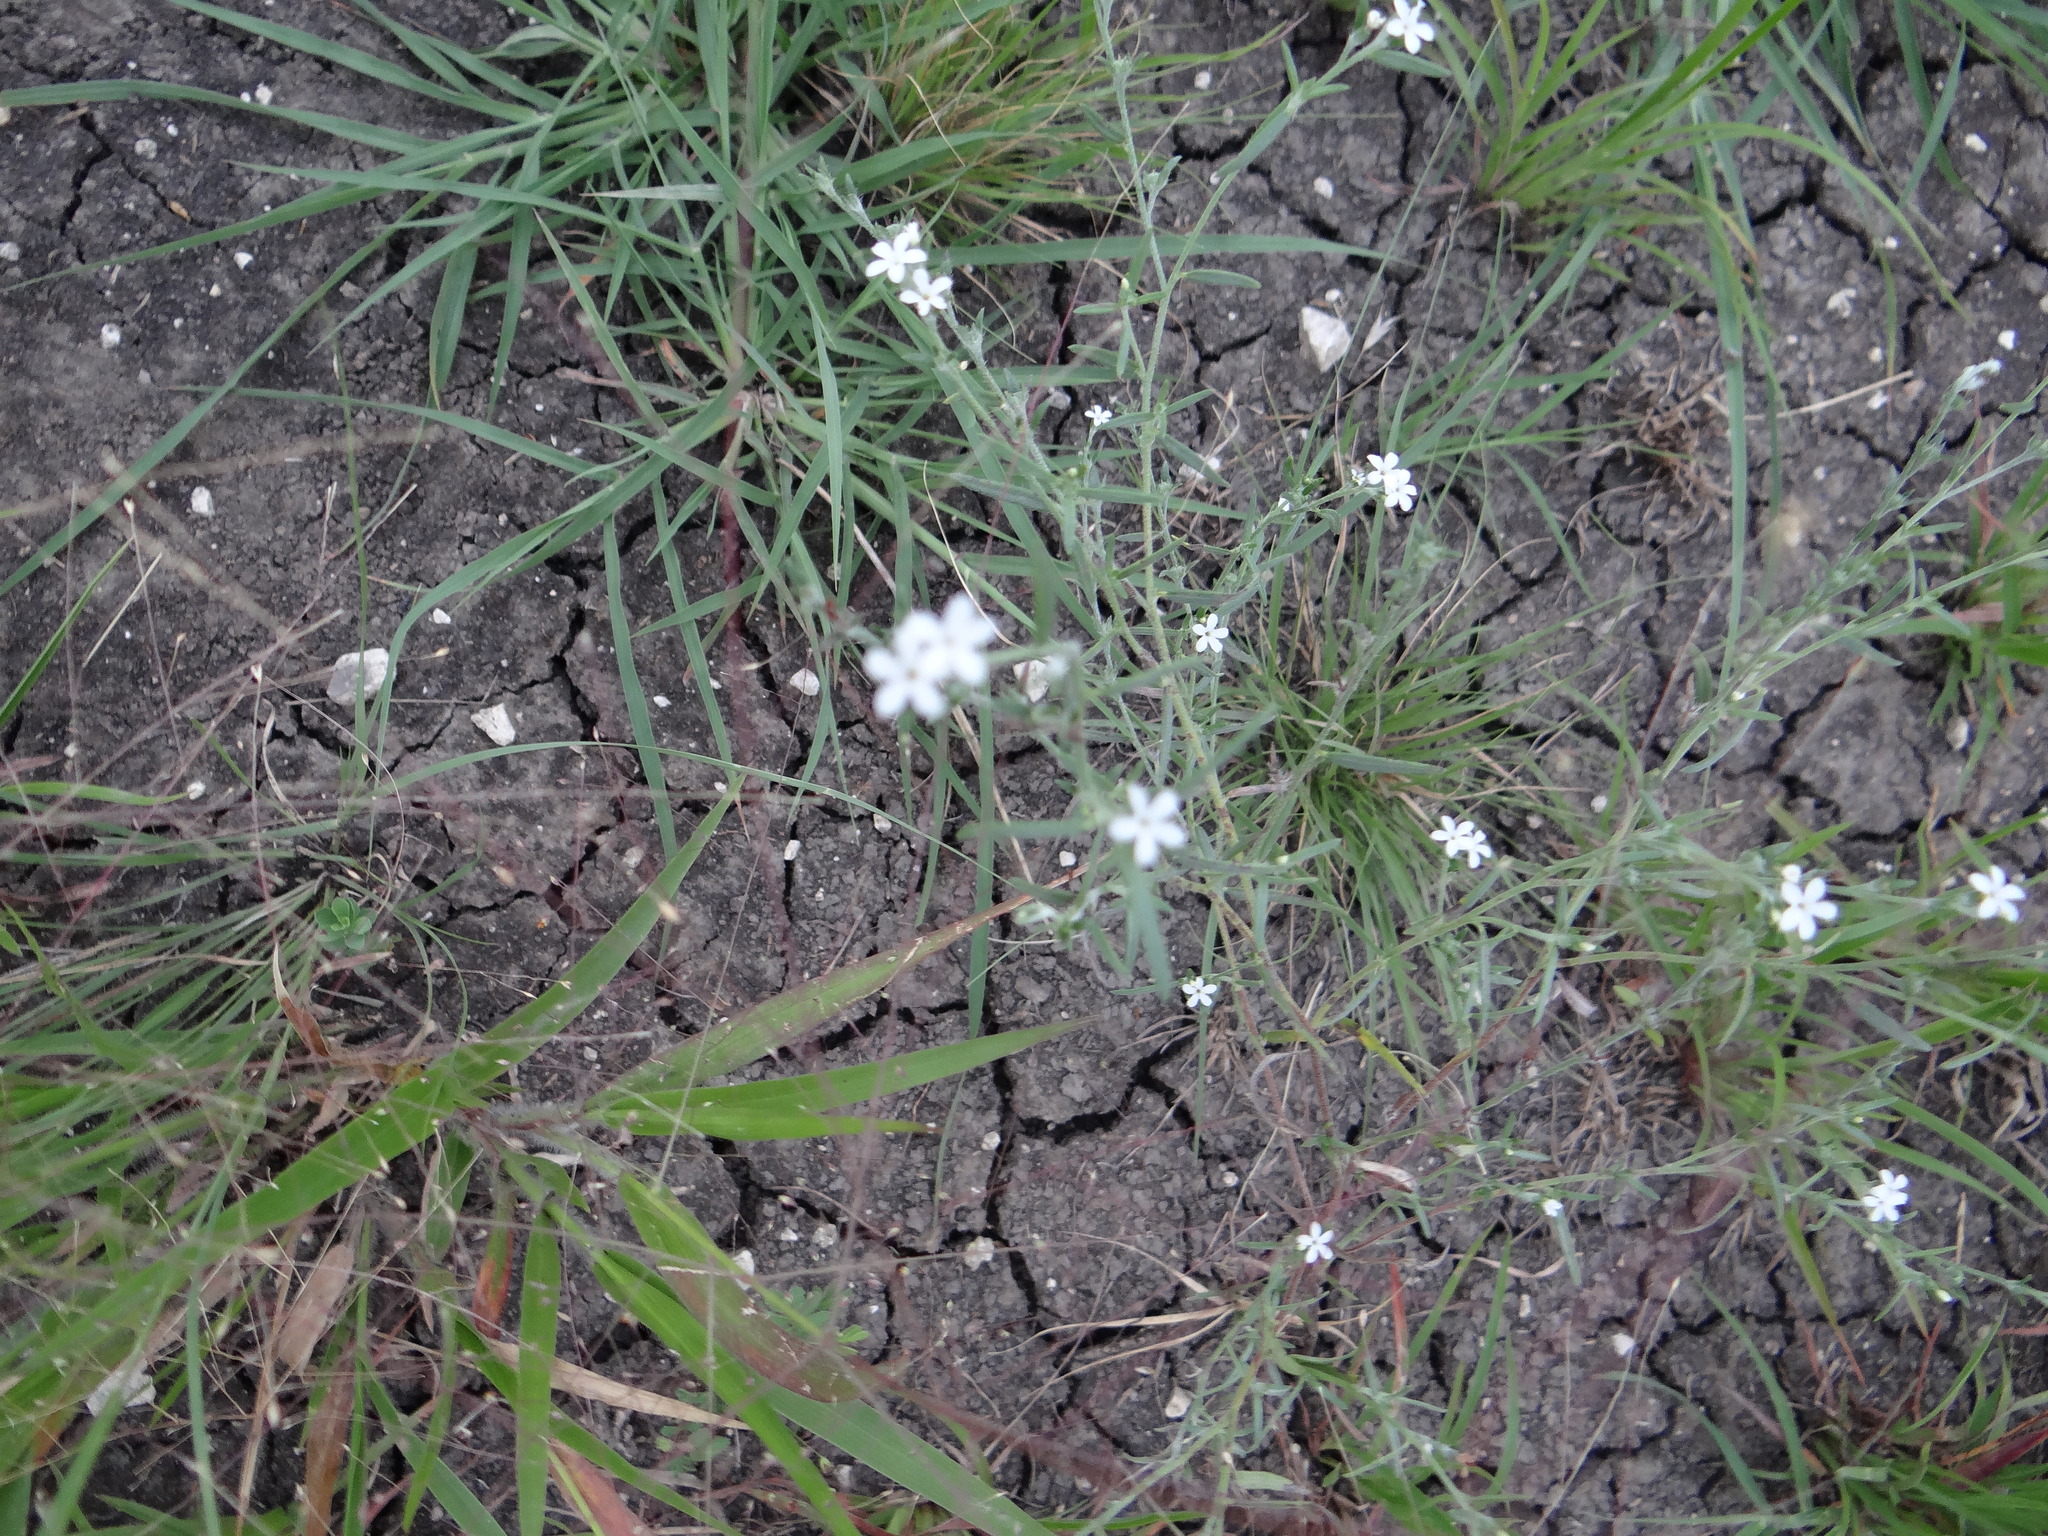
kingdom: Plantae
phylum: Tracheophyta
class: Magnoliopsida
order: Boraginales
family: Heliotropiaceae
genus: Euploca
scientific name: Euploca tenella
